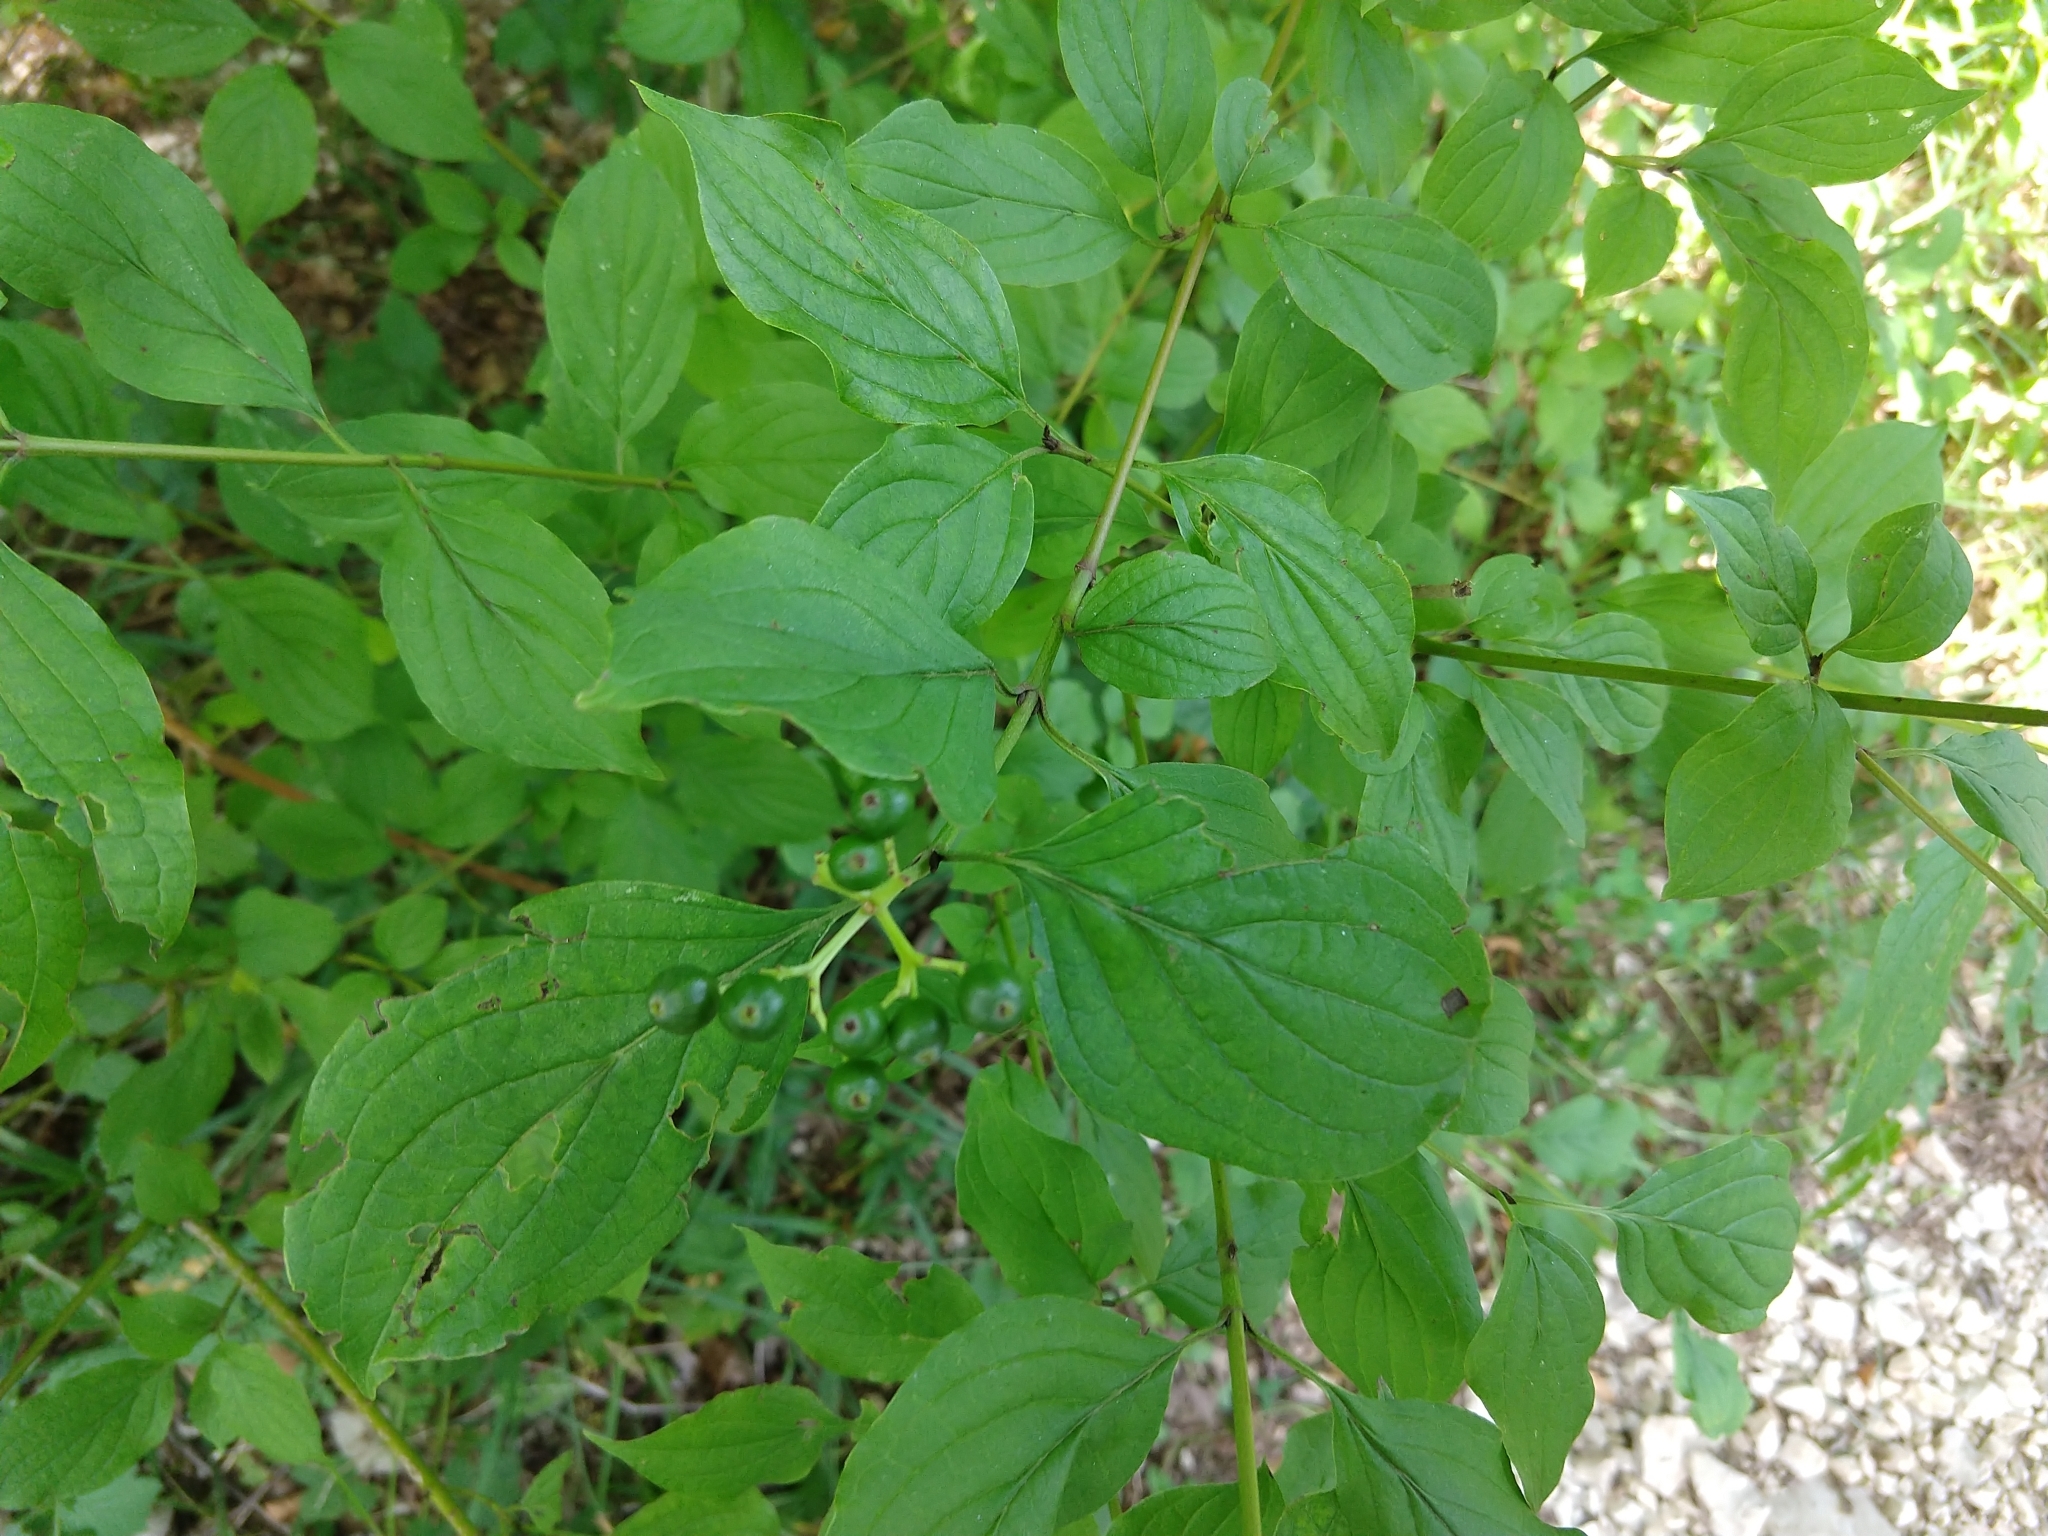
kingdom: Plantae
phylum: Tracheophyta
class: Magnoliopsida
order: Cornales
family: Cornaceae
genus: Cornus
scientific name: Cornus sanguinea
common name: Dogwood
